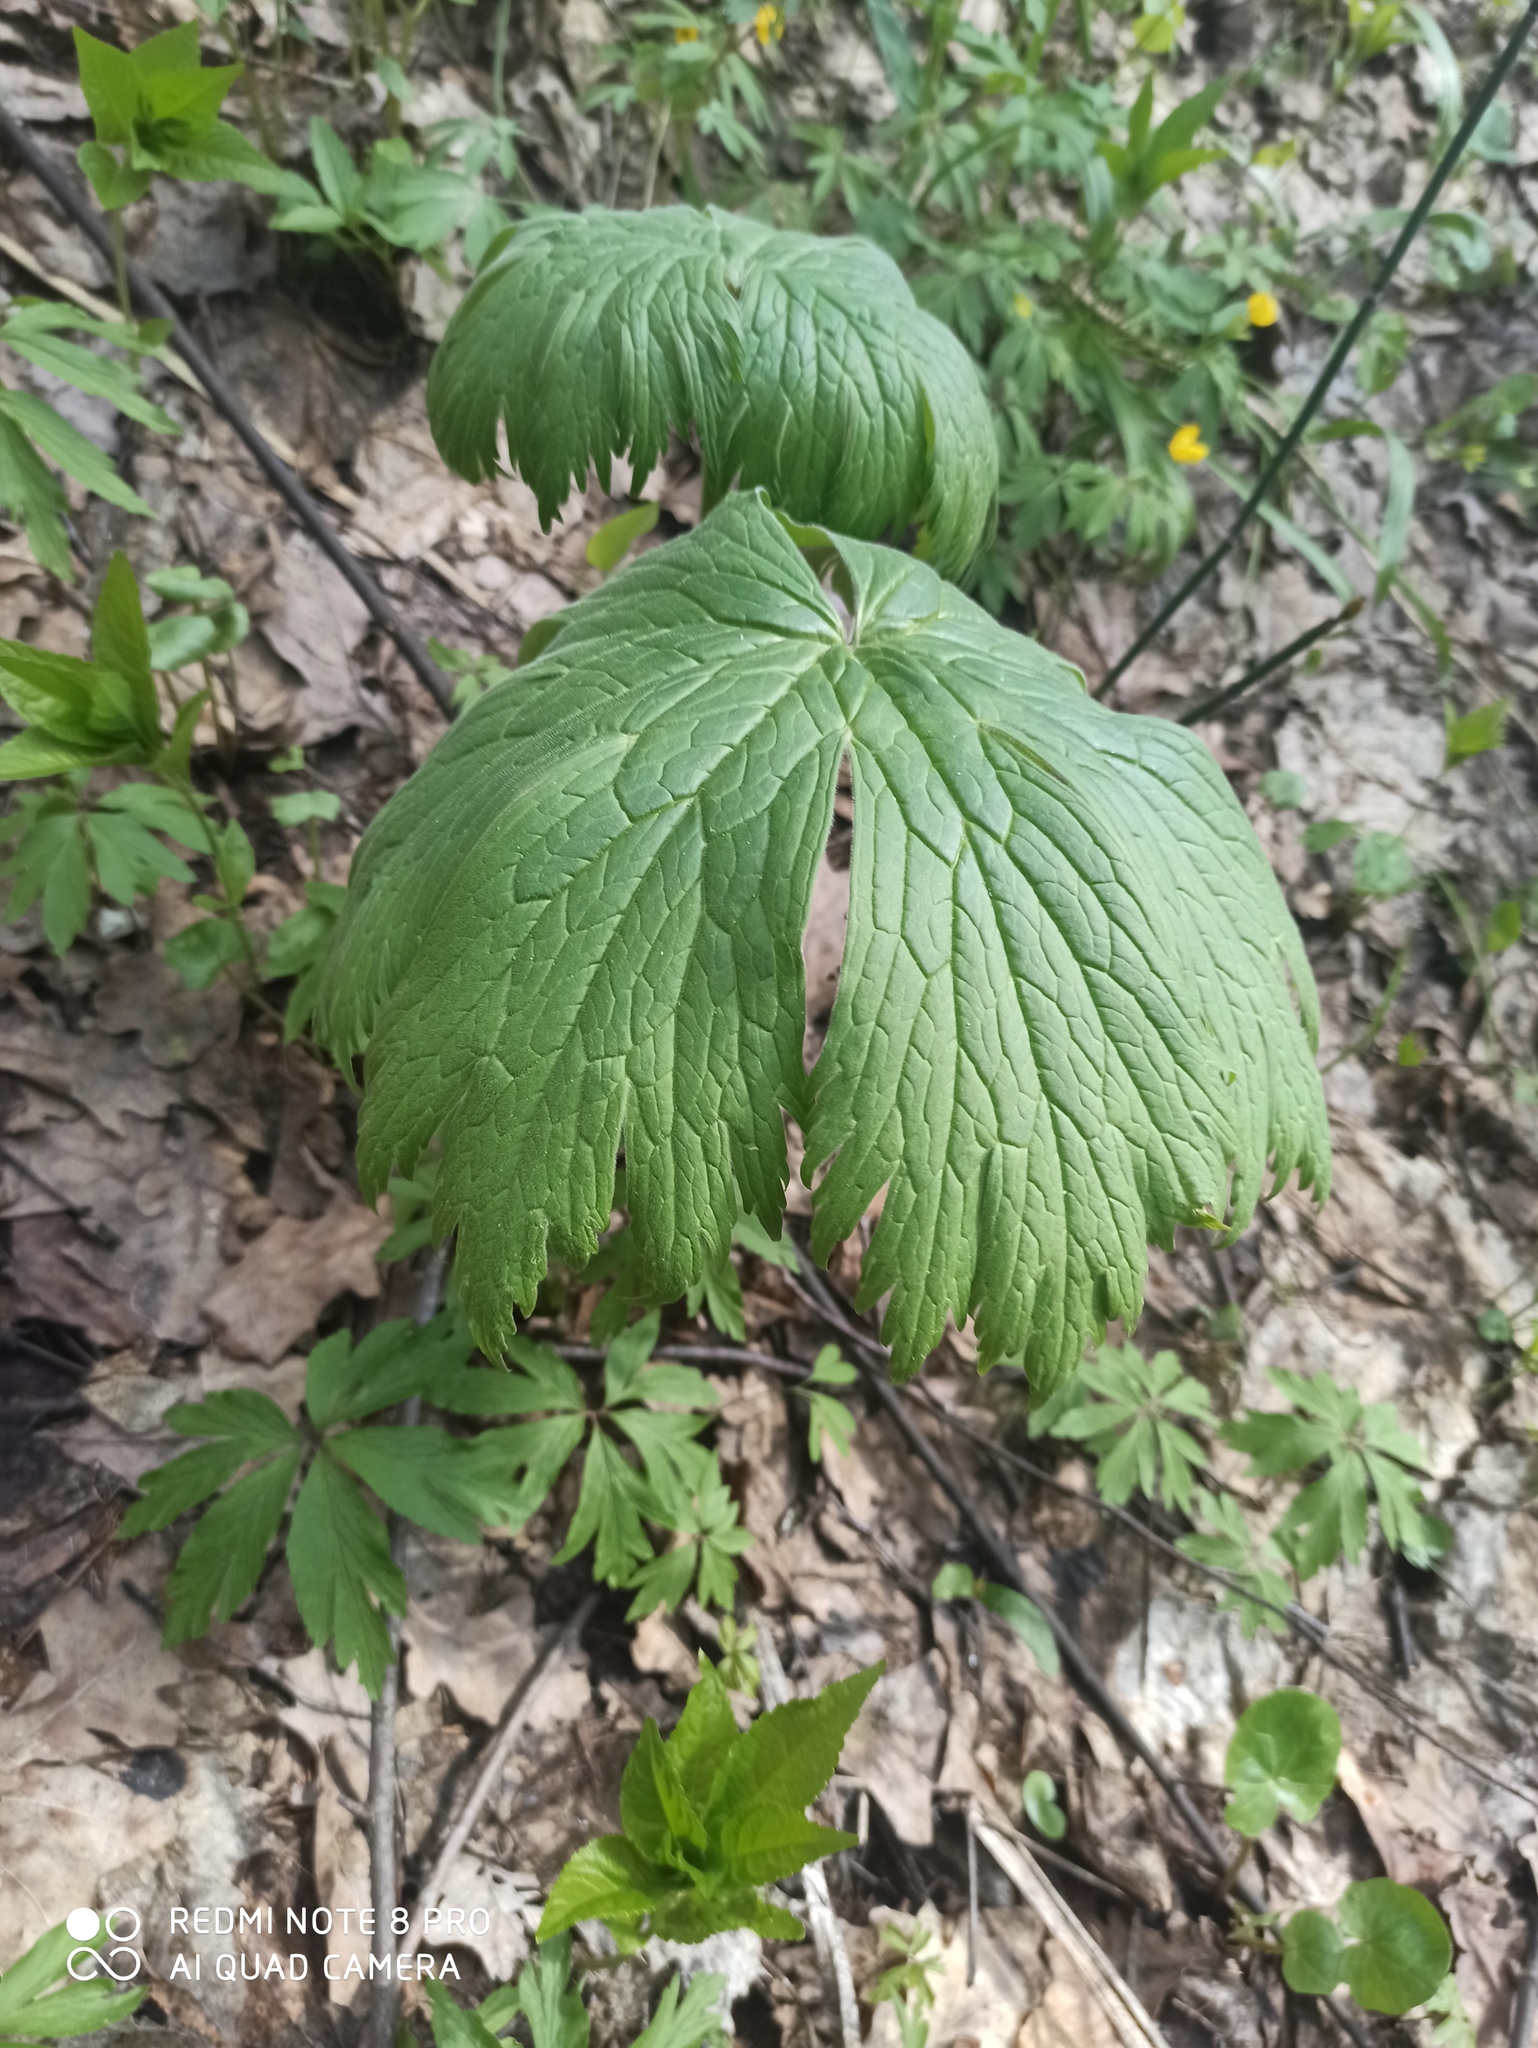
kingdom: Plantae
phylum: Tracheophyta
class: Magnoliopsida
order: Ranunculales
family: Ranunculaceae
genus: Aconitum
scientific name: Aconitum septentrionale
